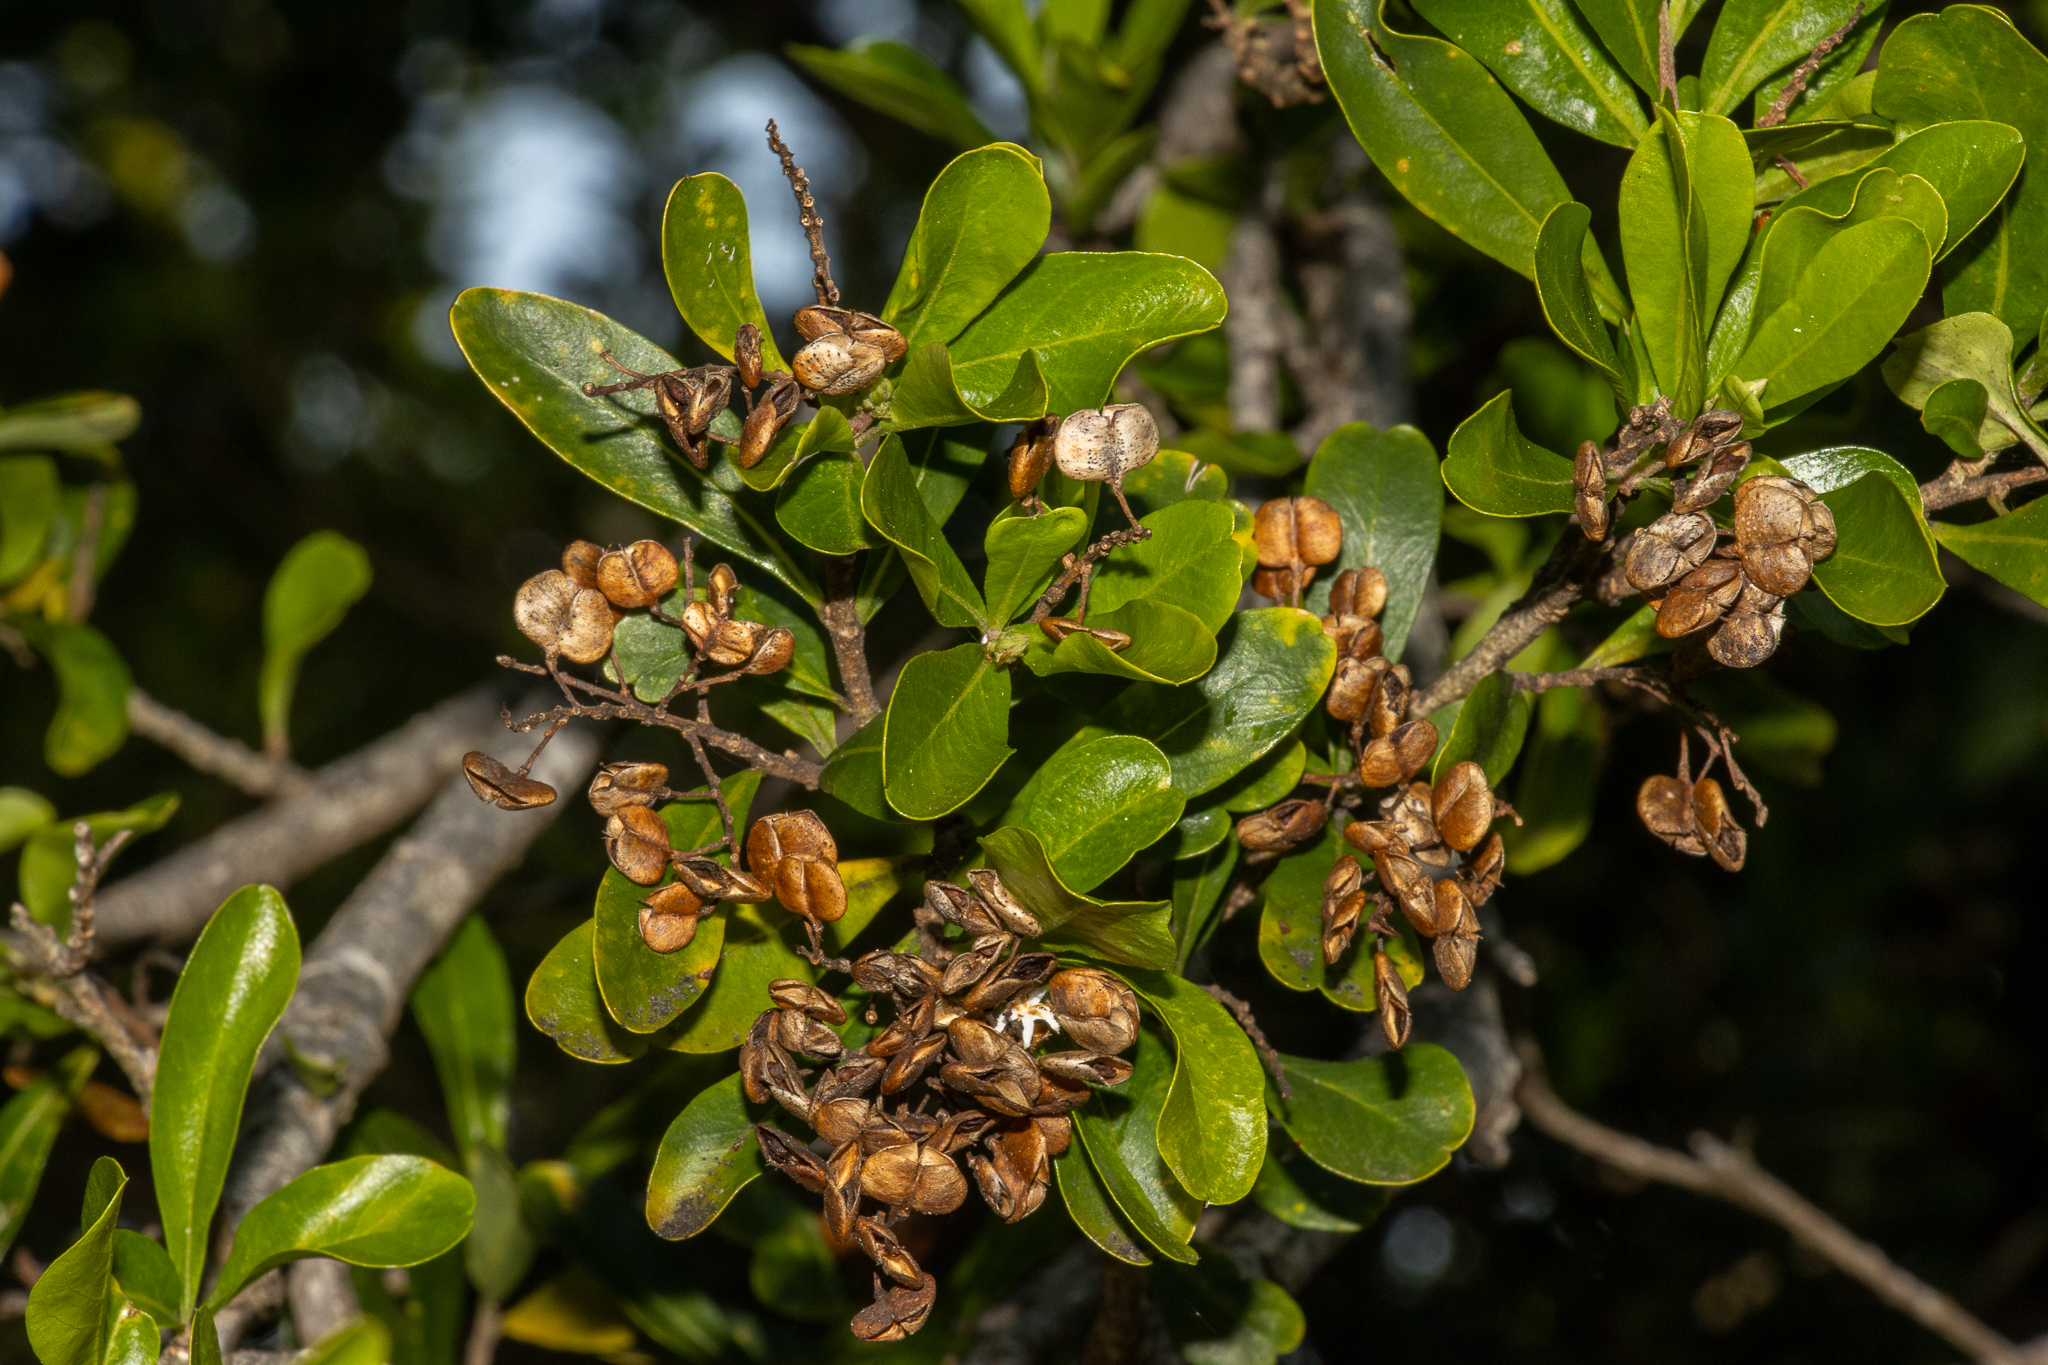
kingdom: Plantae
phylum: Tracheophyta
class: Magnoliopsida
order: Apiales
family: Pittosporaceae
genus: Bursaria
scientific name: Bursaria spinosa
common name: Australian blackthorn
